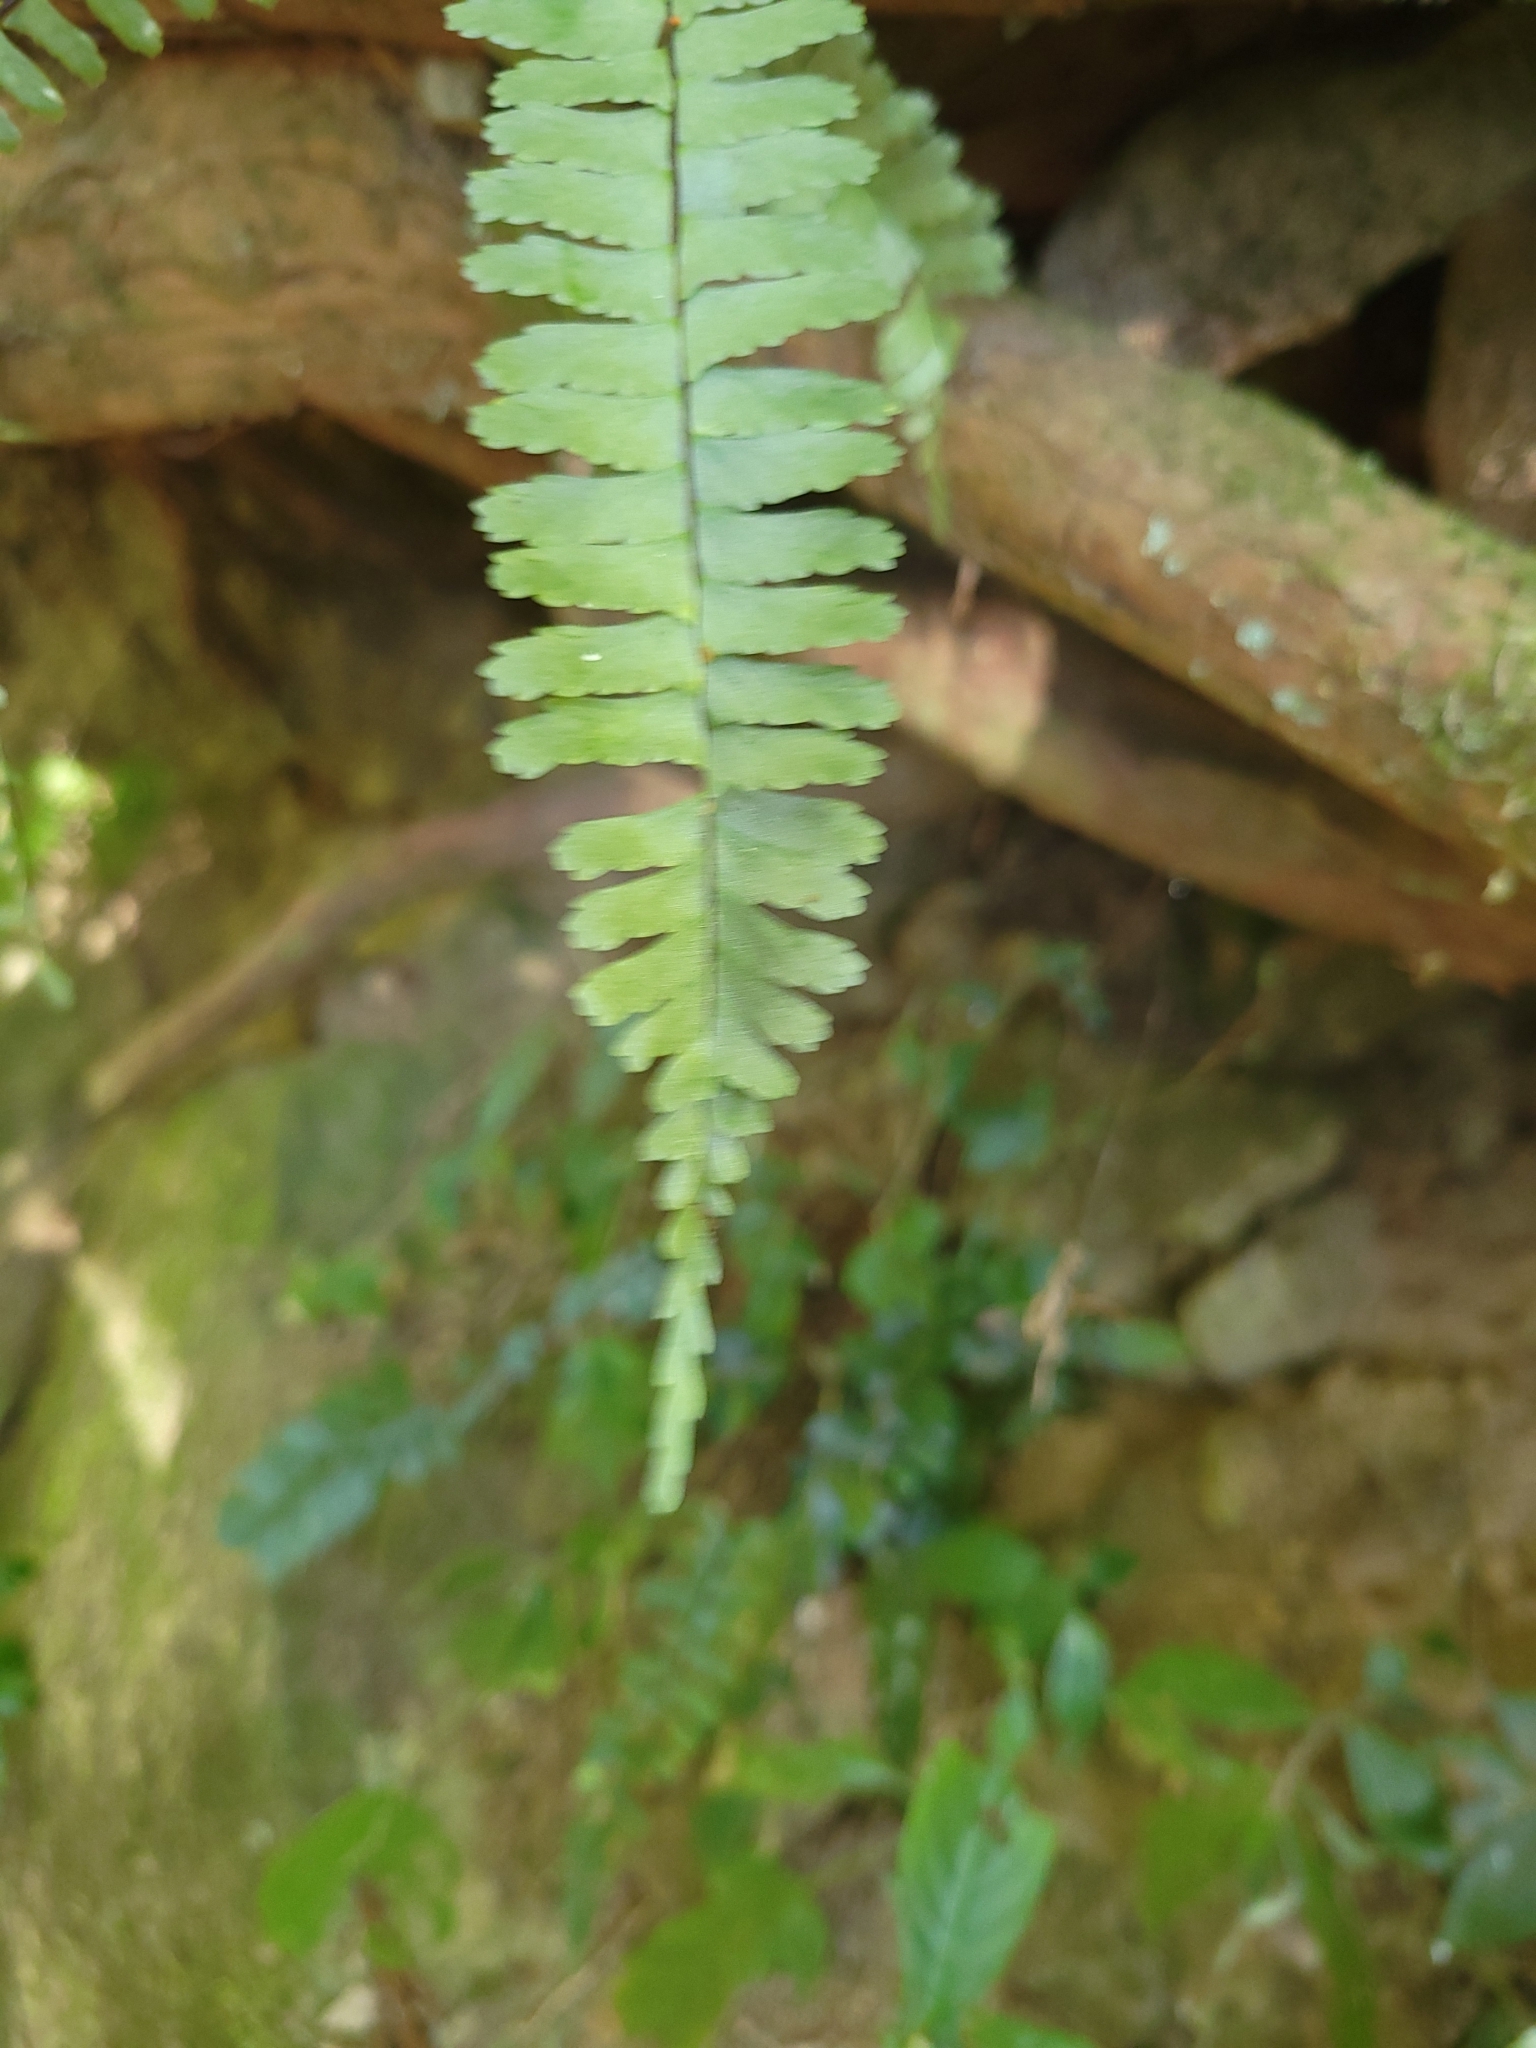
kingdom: Plantae
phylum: Tracheophyta
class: Polypodiopsida
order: Polypodiales
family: Aspleniaceae
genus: Asplenium
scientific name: Asplenium normale
